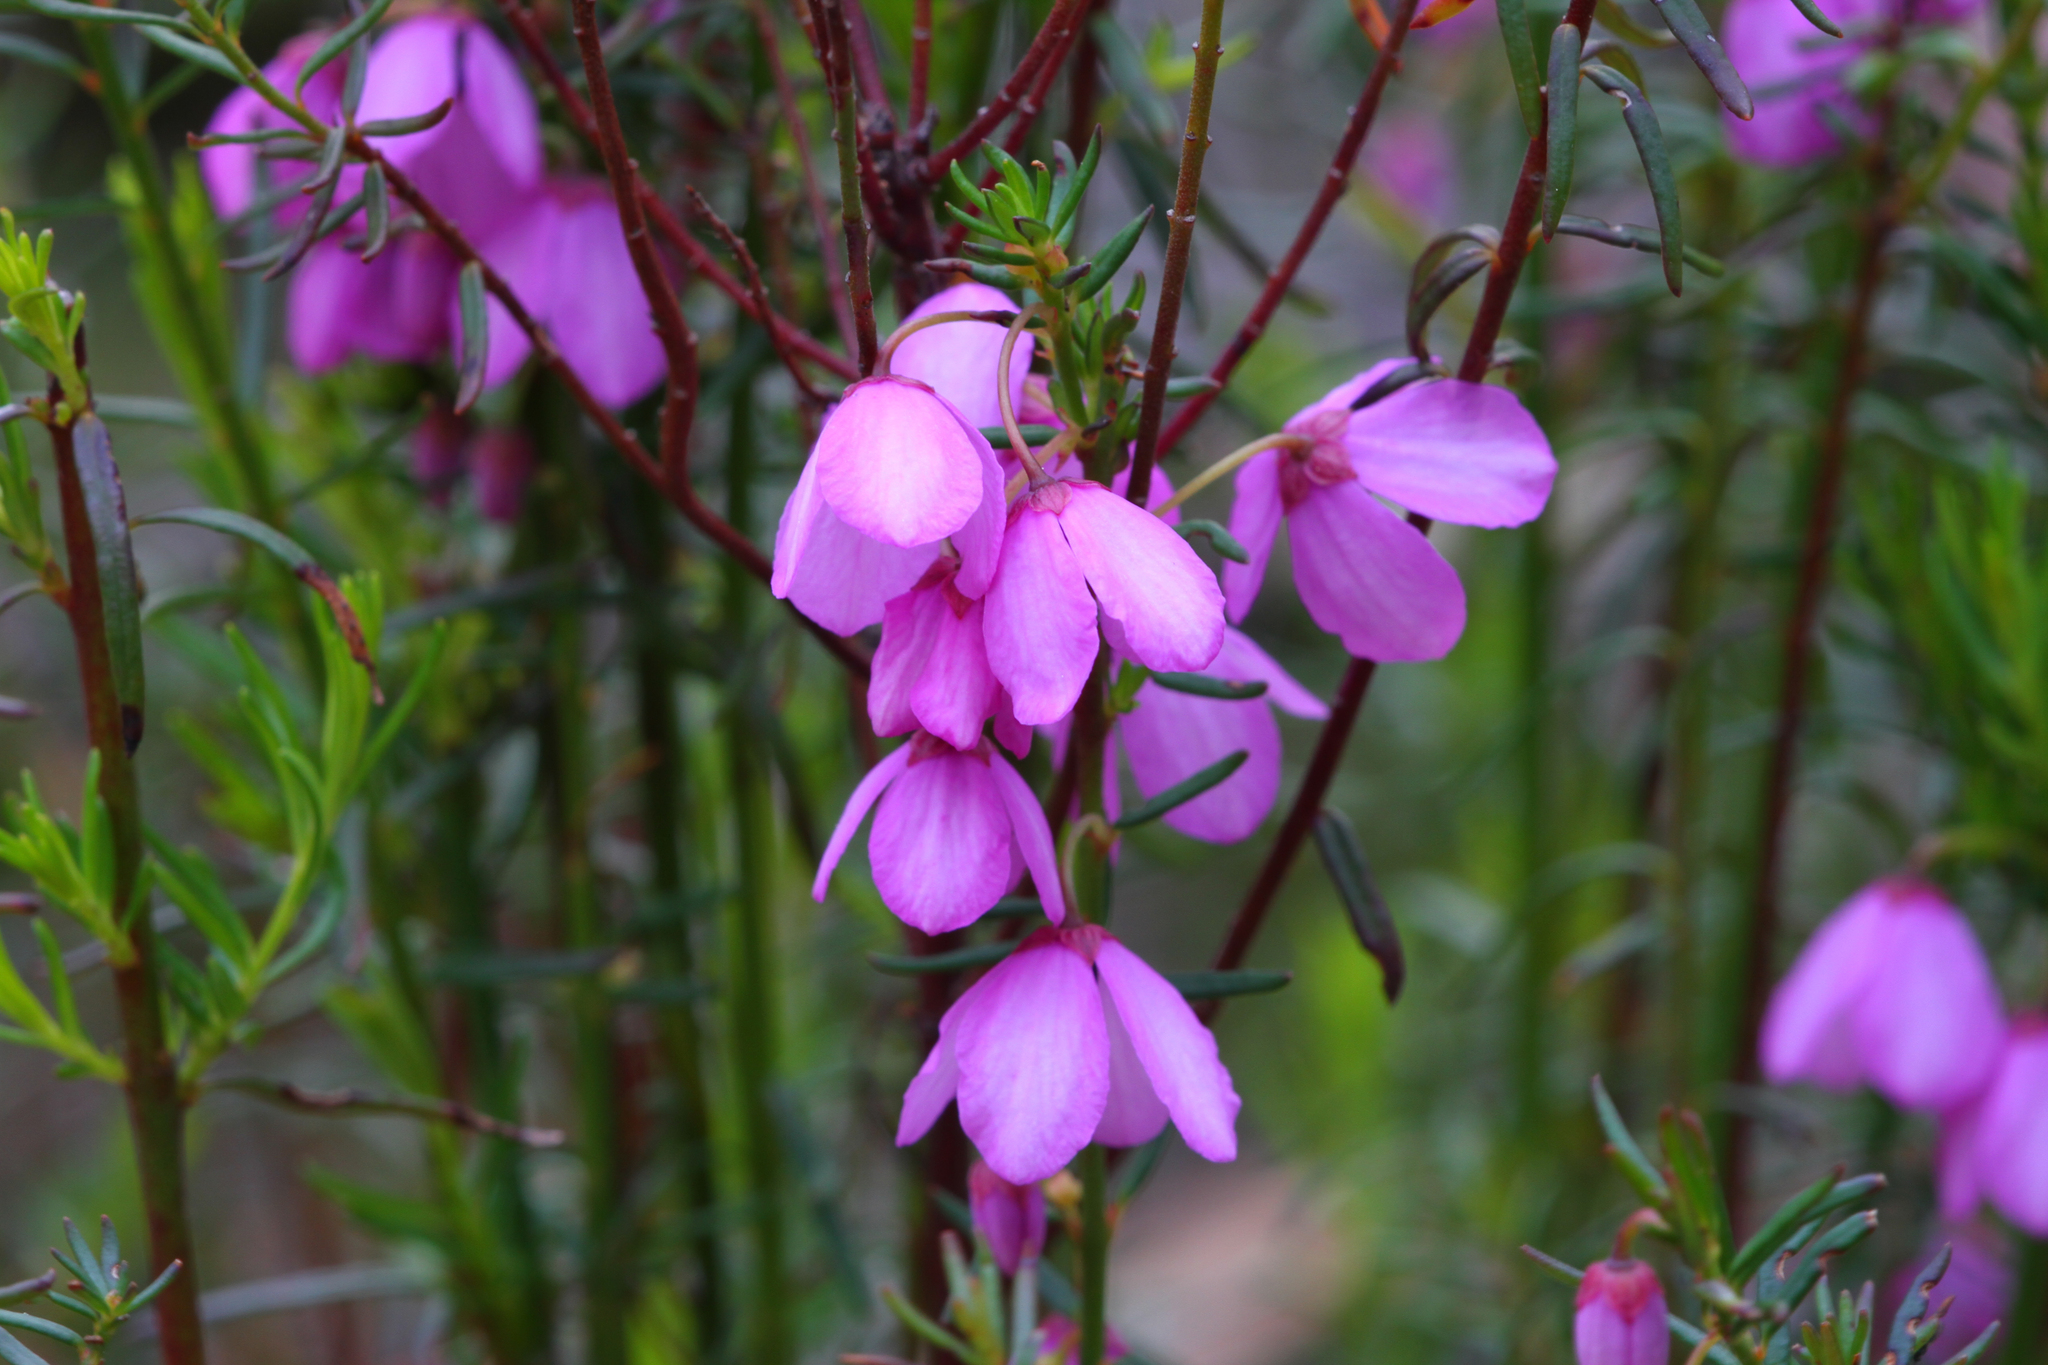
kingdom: Plantae
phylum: Tracheophyta
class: Magnoliopsida
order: Oxalidales
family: Elaeocarpaceae
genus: Tetratheca
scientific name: Tetratheca pilosa
